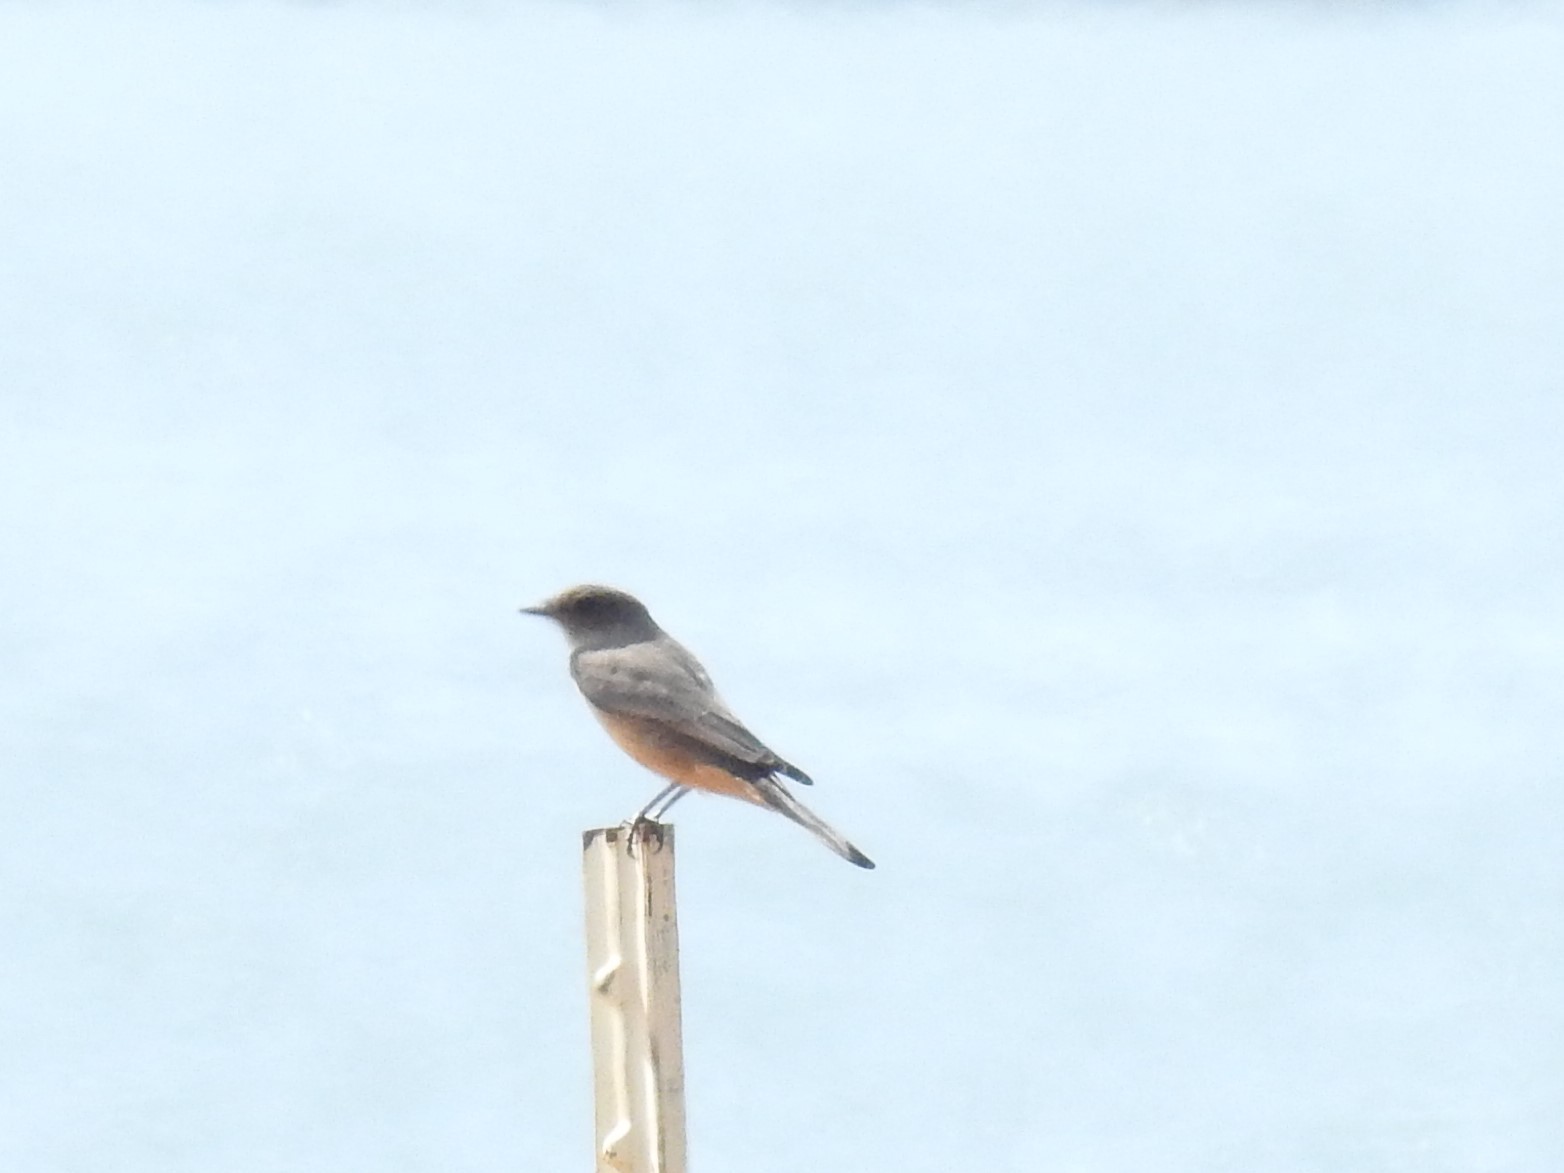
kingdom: Animalia
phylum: Chordata
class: Aves
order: Passeriformes
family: Tyrannidae
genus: Sayornis
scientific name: Sayornis saya
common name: Say's phoebe
